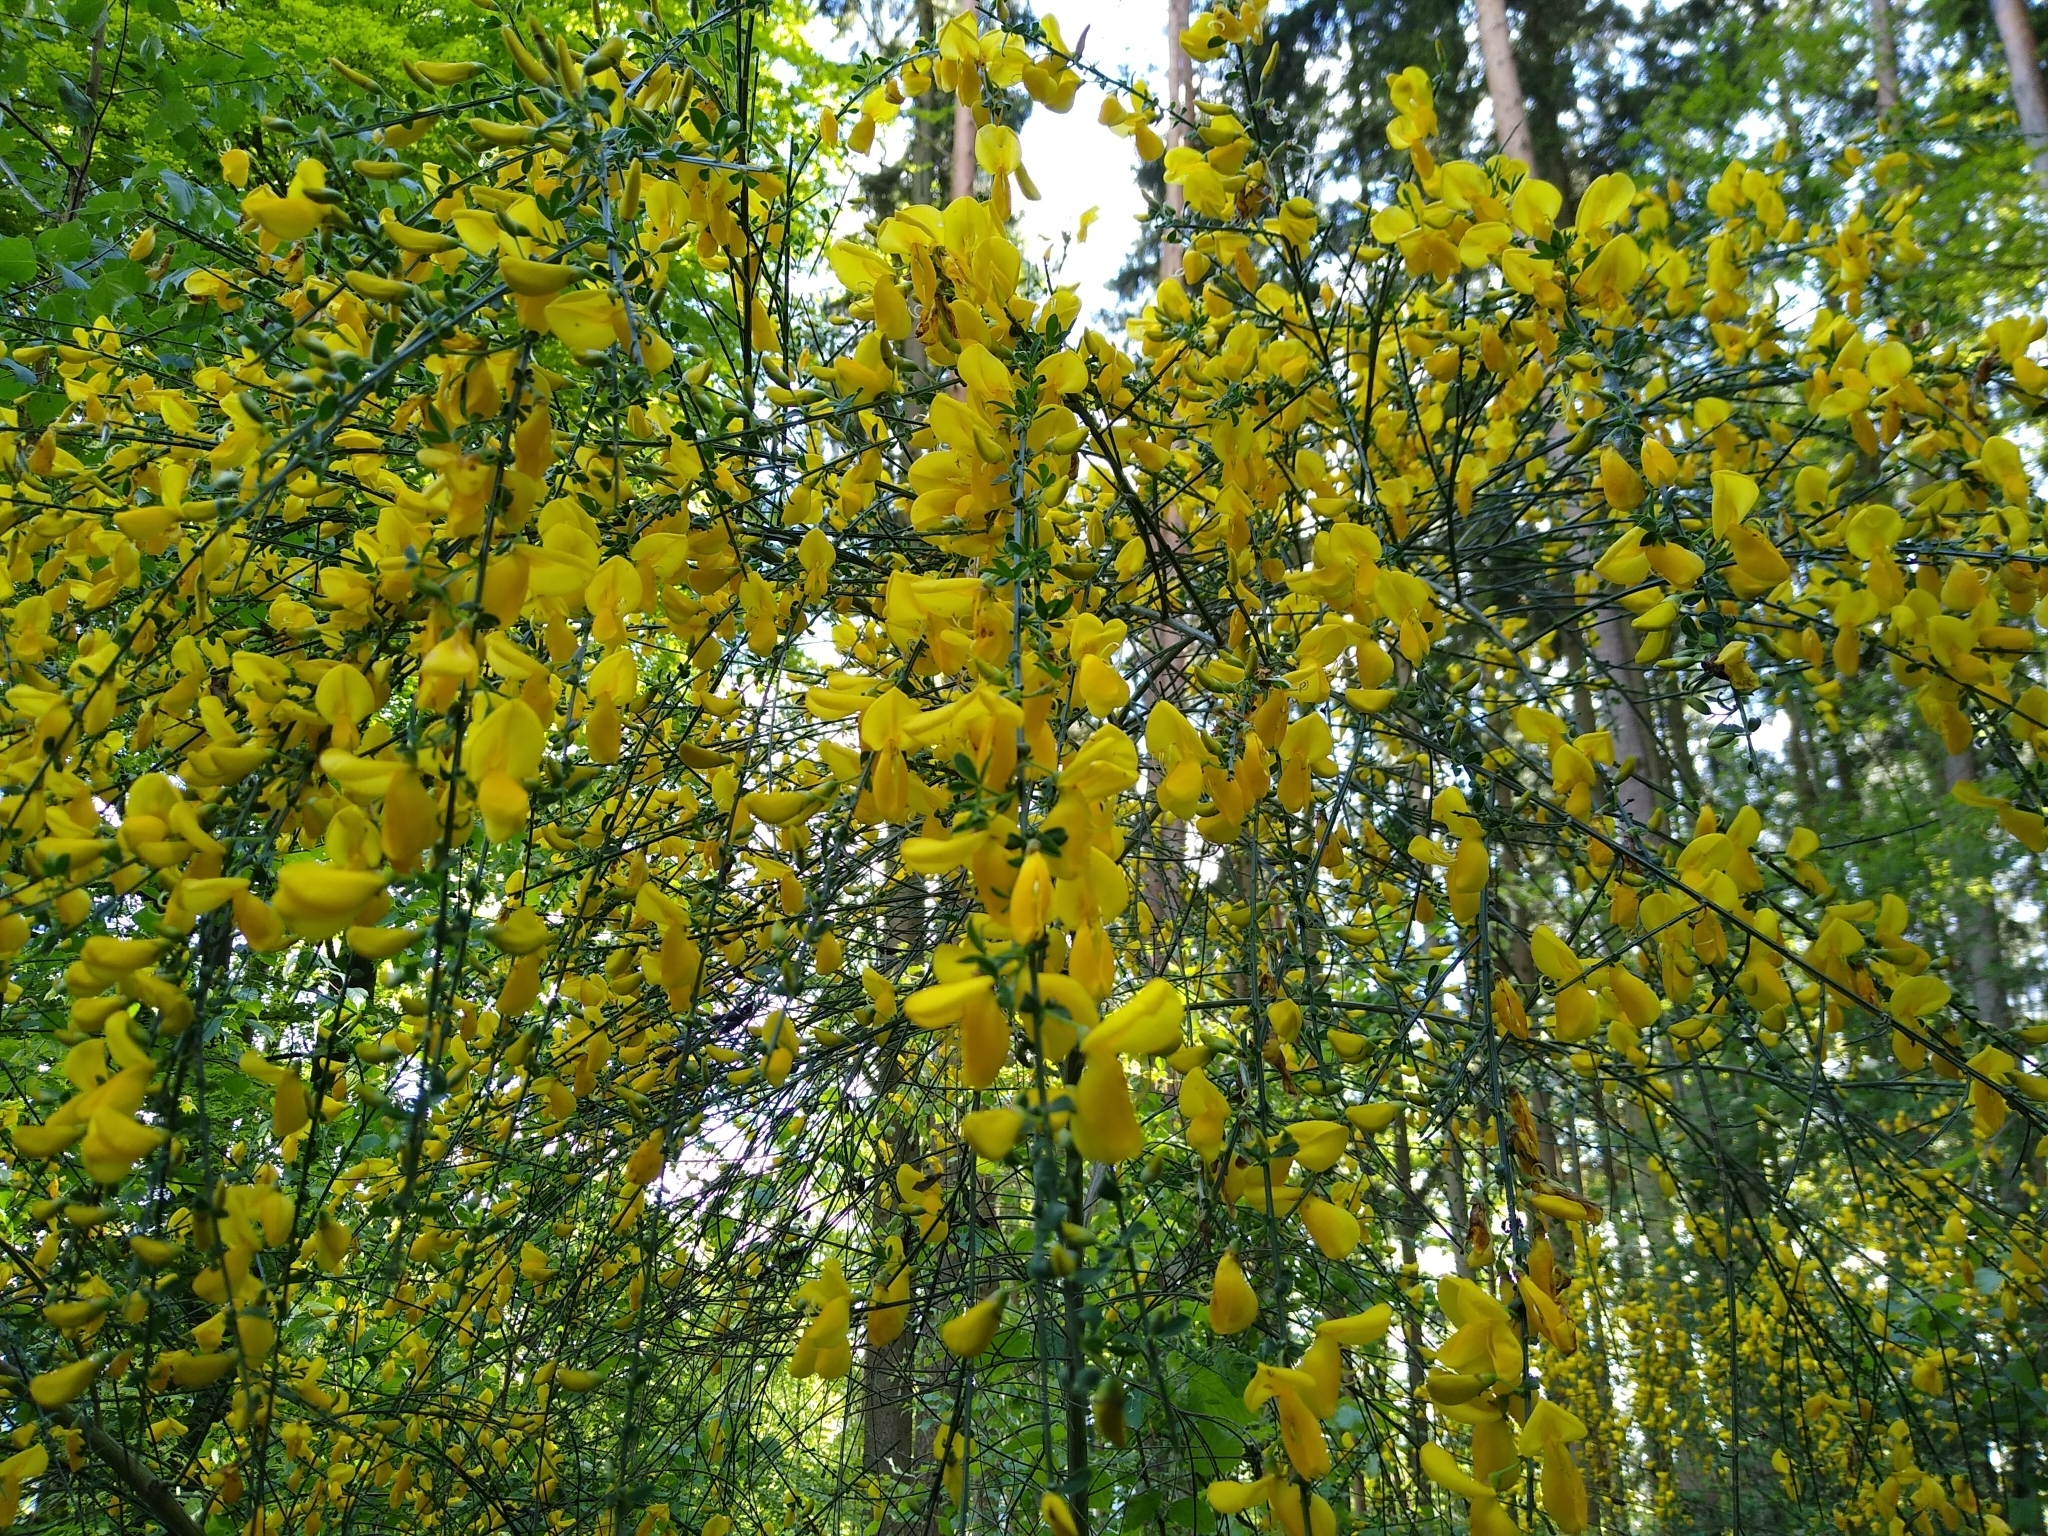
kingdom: Plantae
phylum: Tracheophyta
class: Magnoliopsida
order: Fabales
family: Fabaceae
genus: Cytisus
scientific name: Cytisus scoparius
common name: Scotch broom
